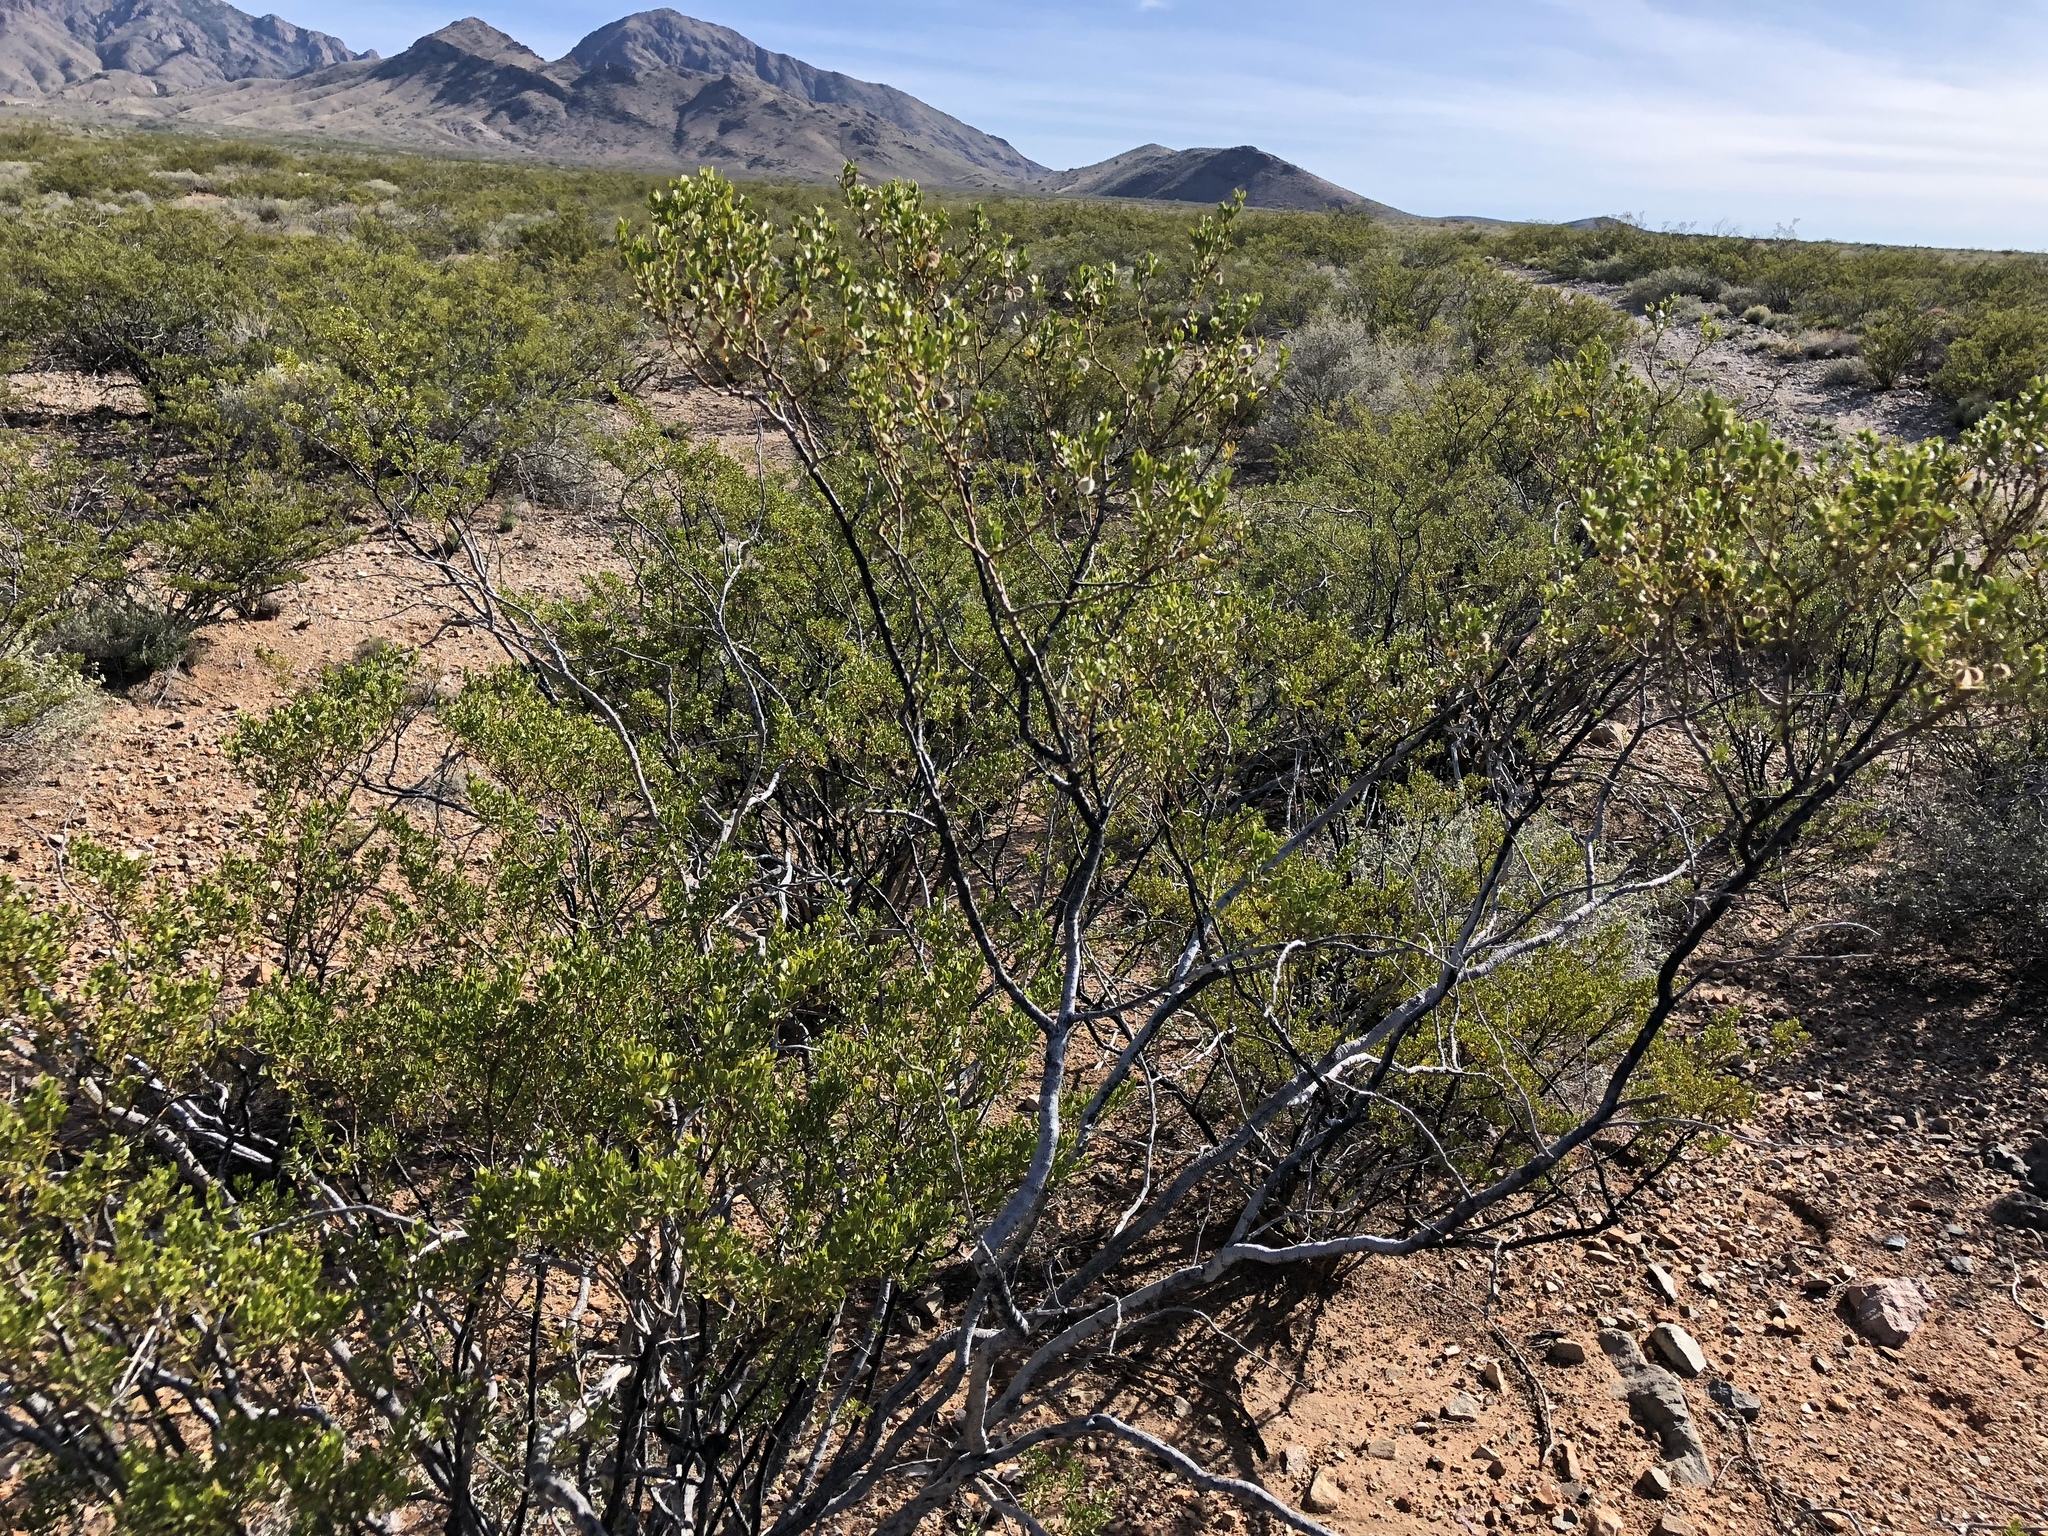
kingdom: Plantae
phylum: Tracheophyta
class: Magnoliopsida
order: Zygophyllales
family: Zygophyllaceae
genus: Larrea
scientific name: Larrea tridentata
